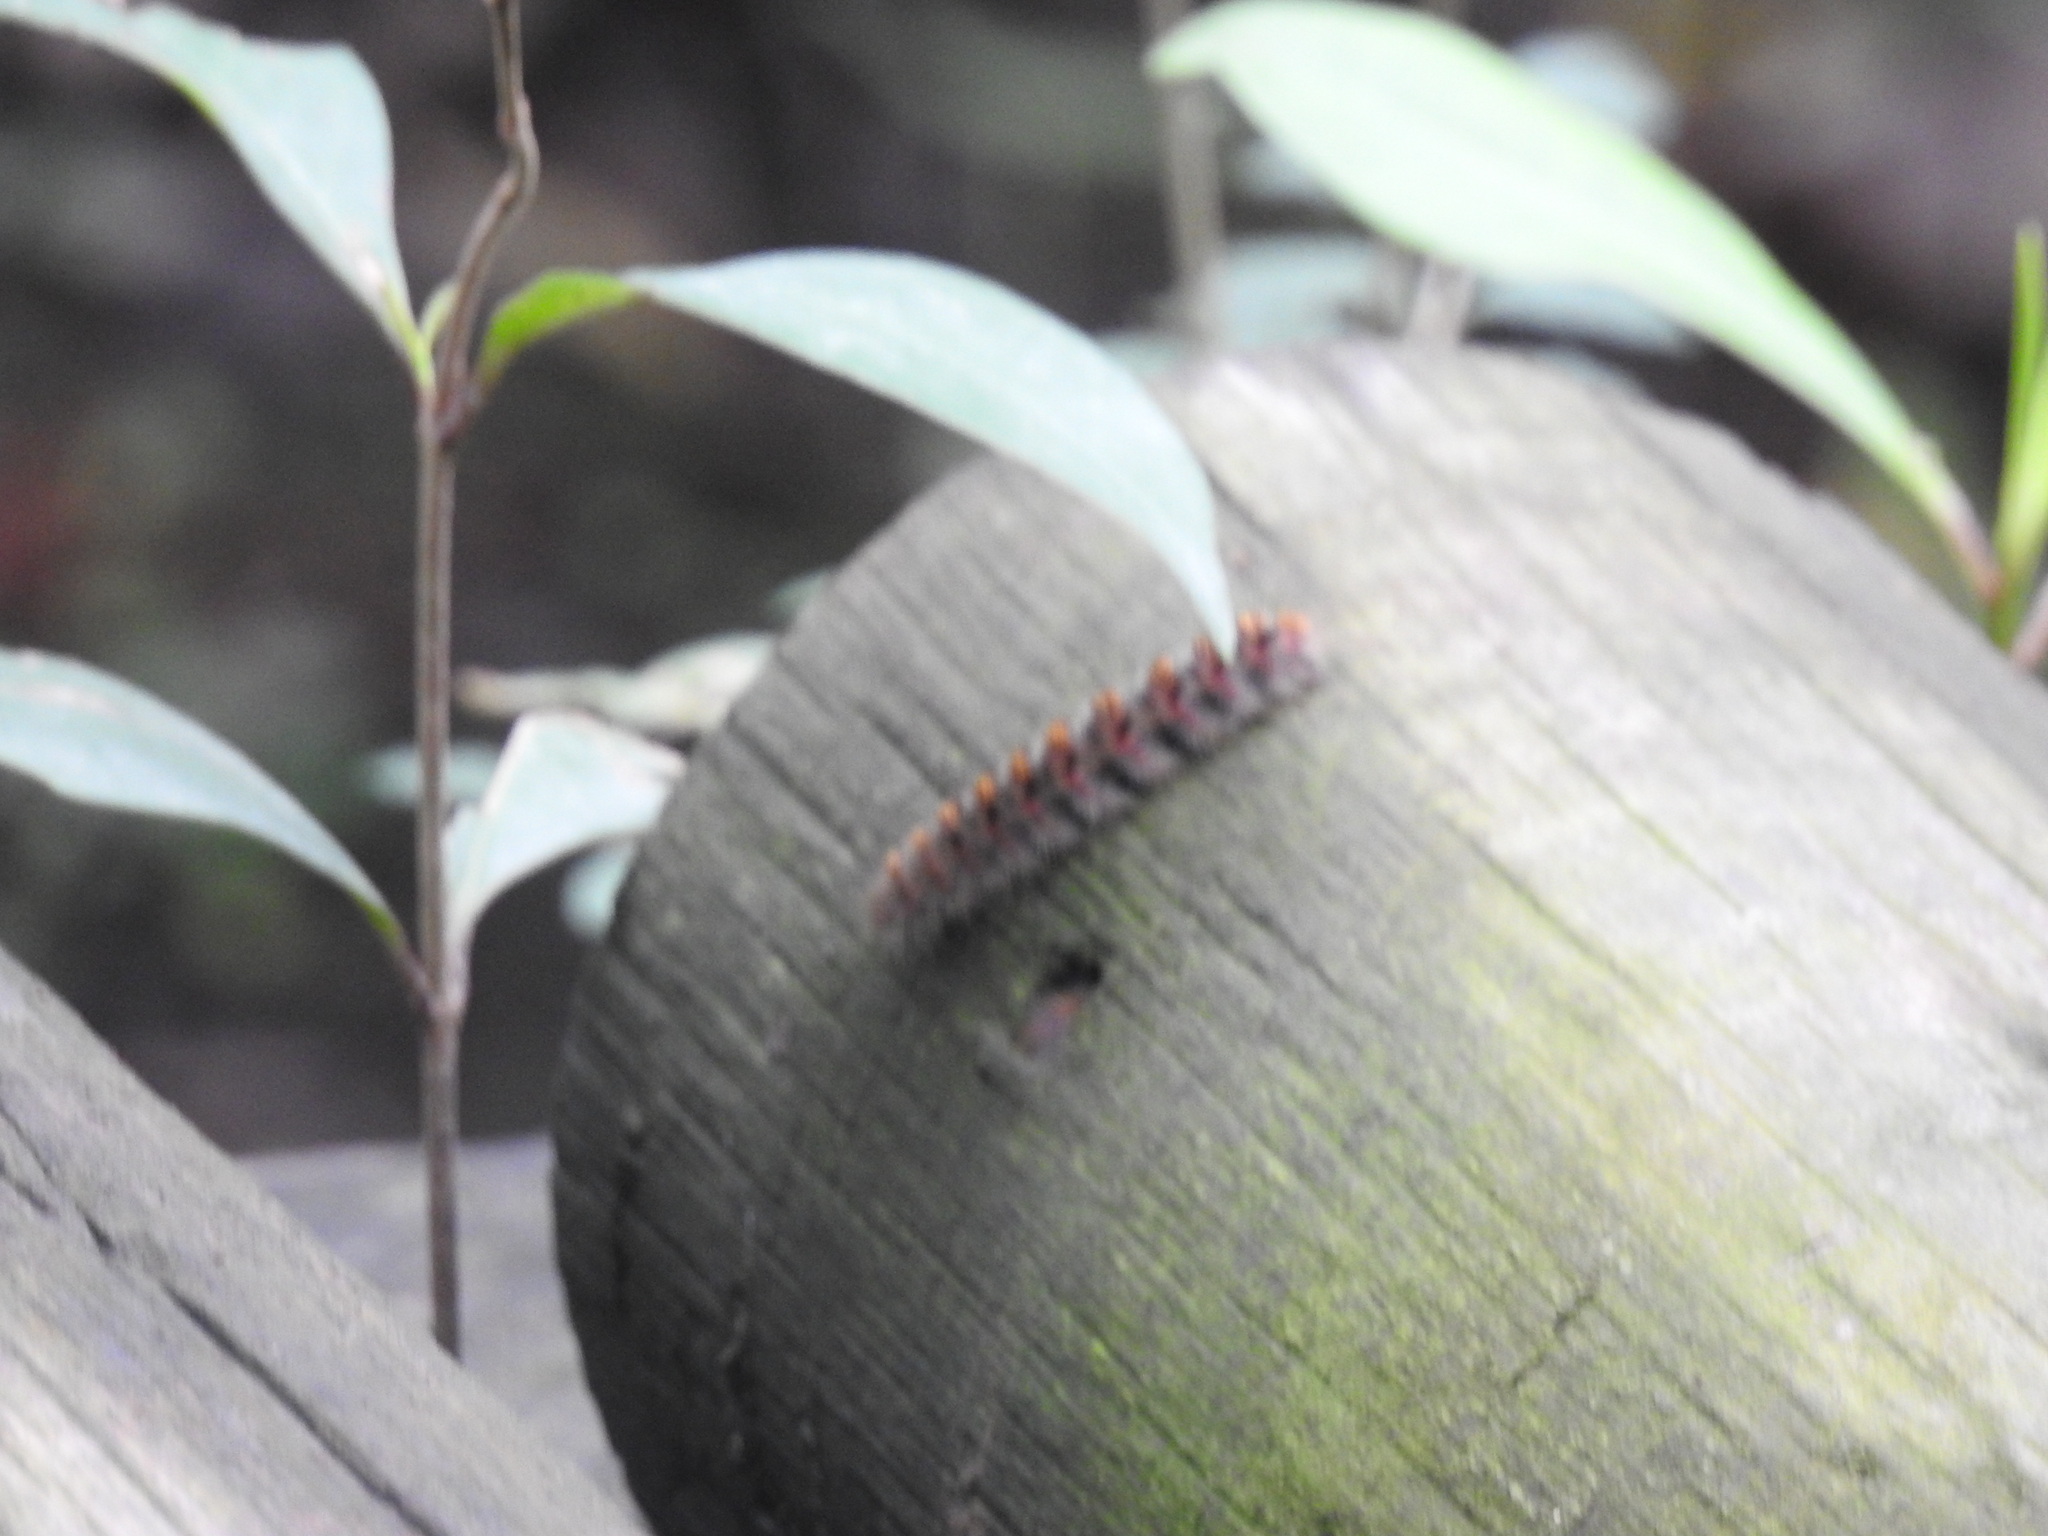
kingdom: Animalia
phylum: Arthropoda
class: Insecta
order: Lepidoptera
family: Erebidae
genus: Paracles
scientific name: Paracles fusca
